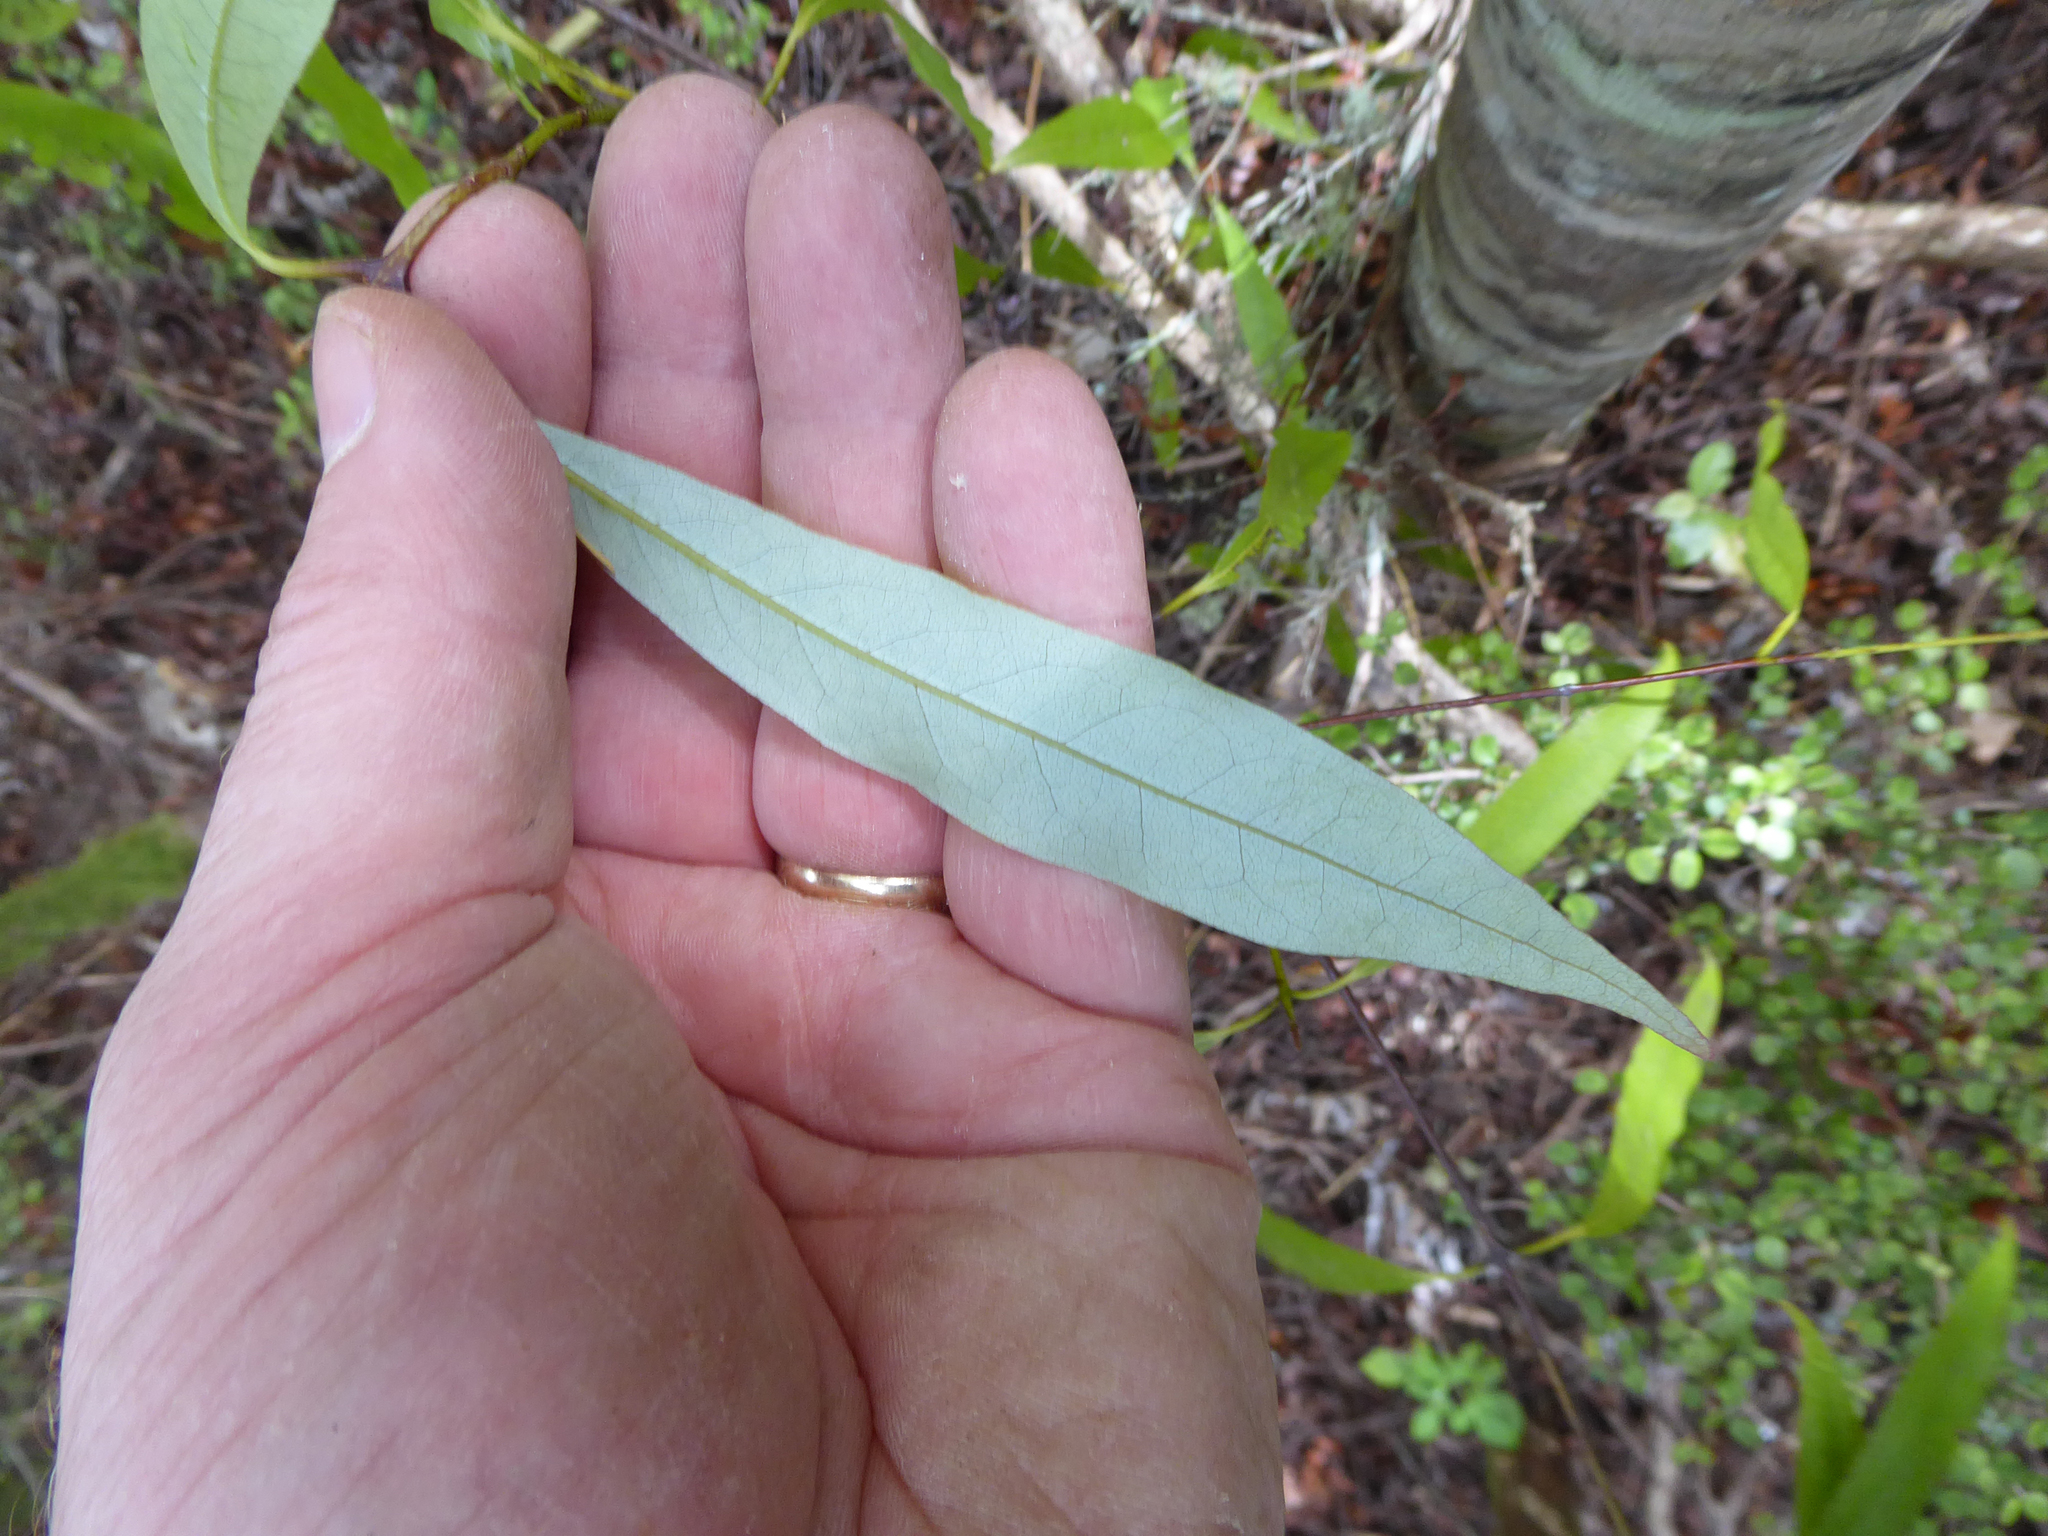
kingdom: Plantae
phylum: Tracheophyta
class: Magnoliopsida
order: Laurales
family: Lauraceae
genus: Beilschmiedia
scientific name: Beilschmiedia tawa
